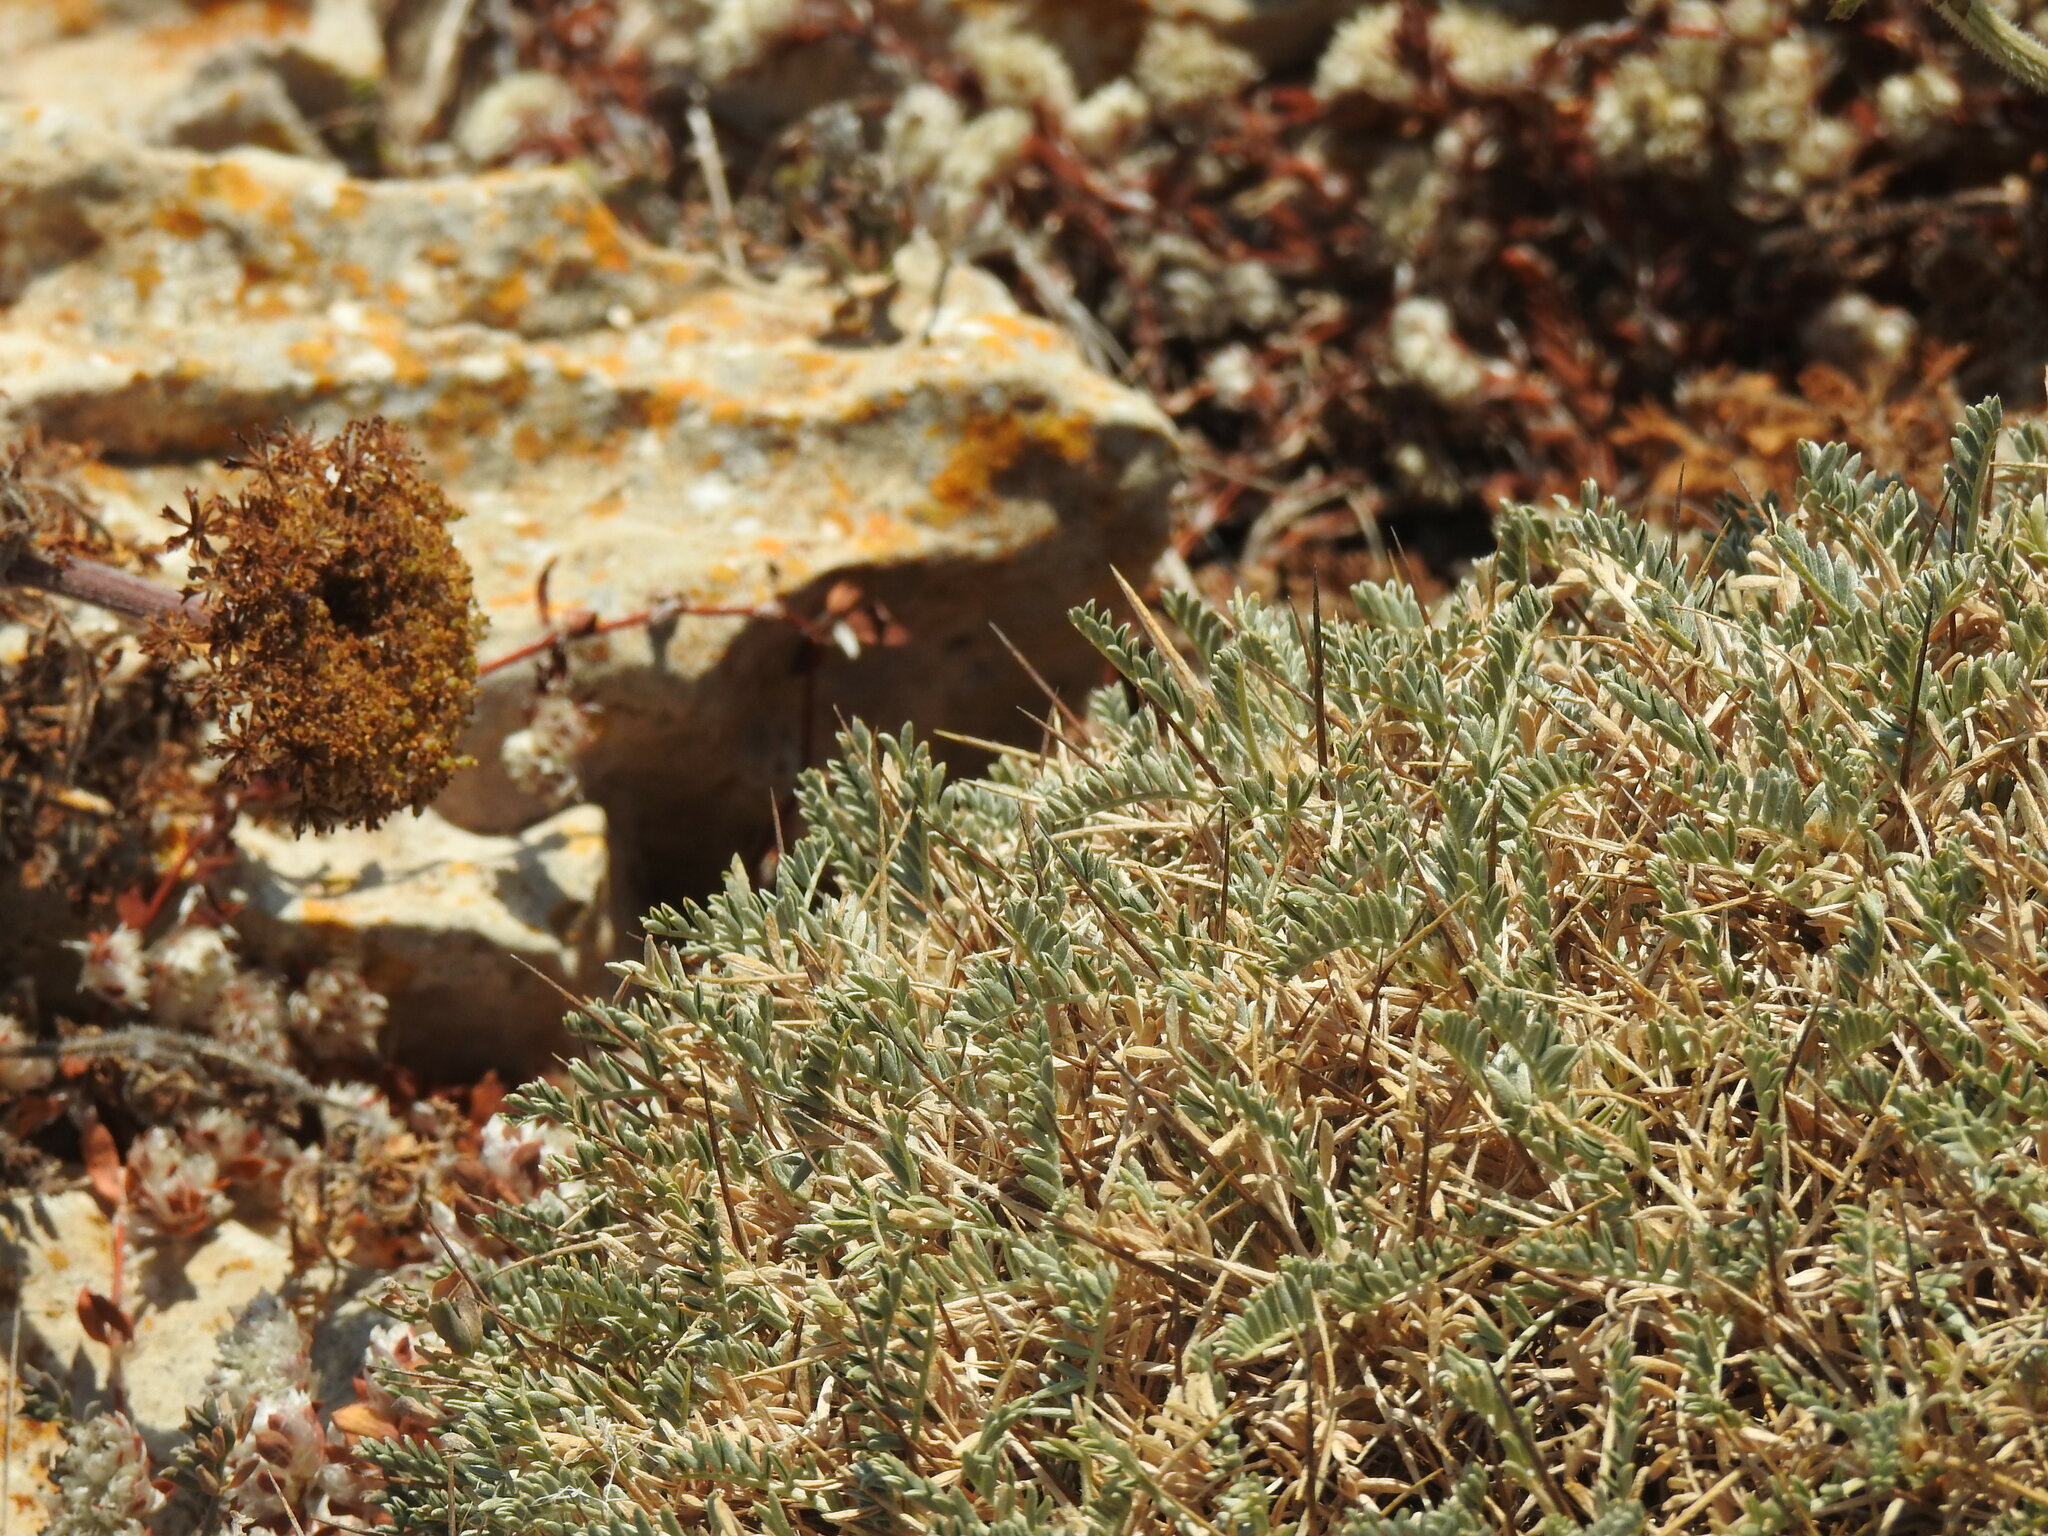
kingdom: Plantae
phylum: Tracheophyta
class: Magnoliopsida
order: Fabales
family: Fabaceae
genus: Astragalus
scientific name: Astragalus tragacantha
